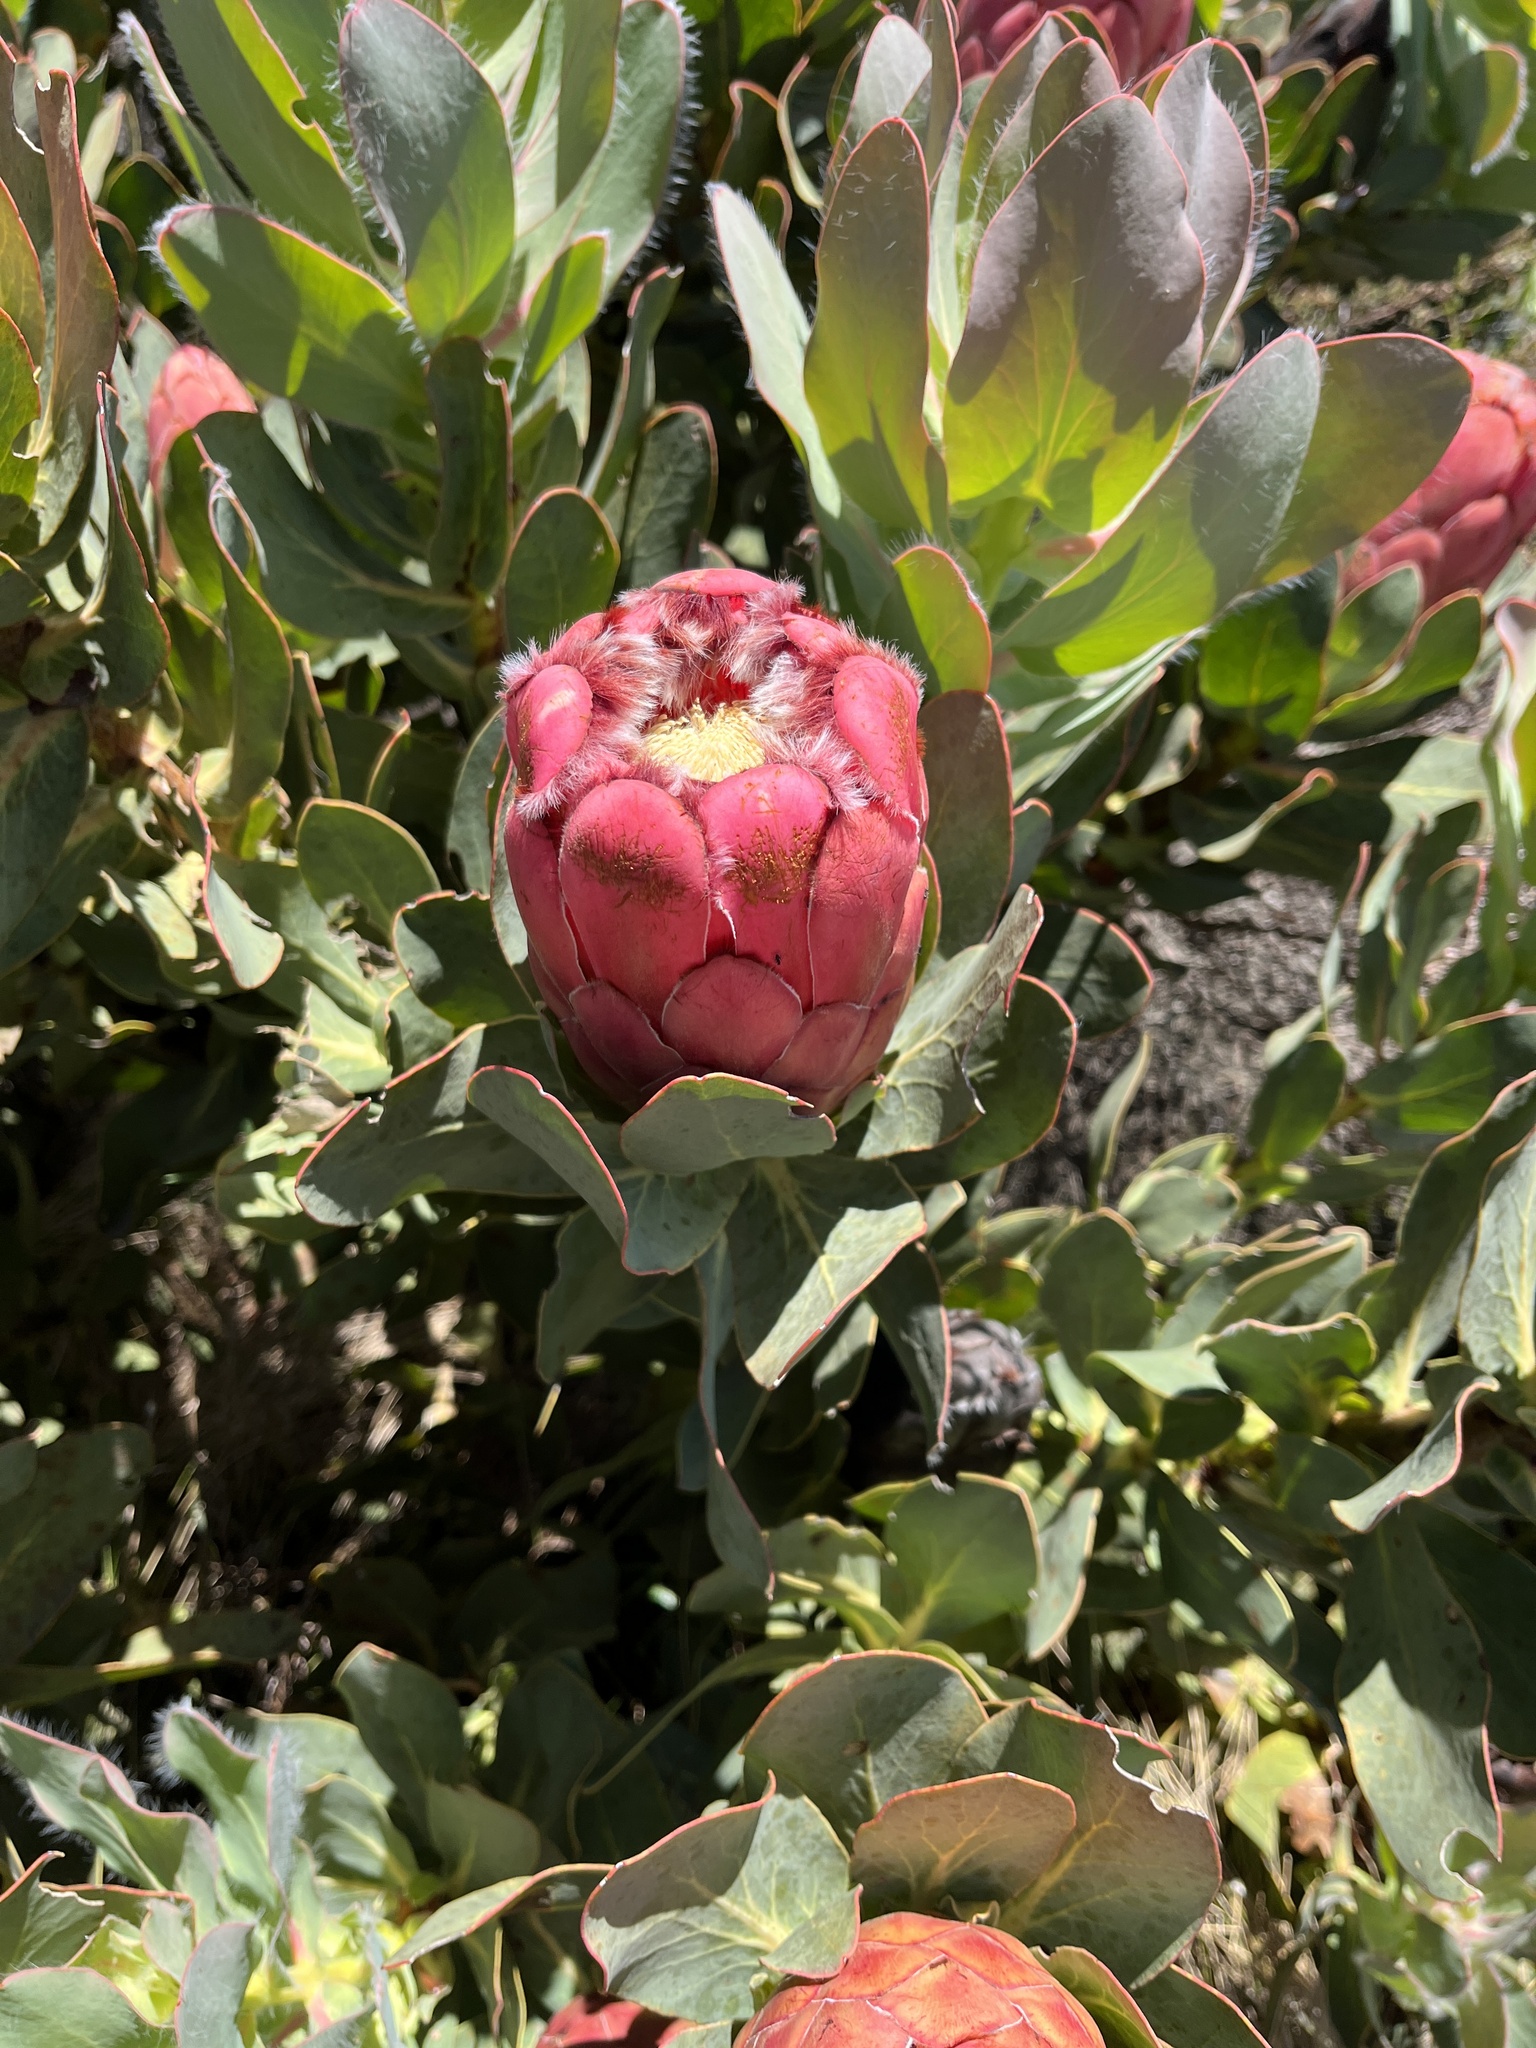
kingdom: Plantae
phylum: Tracheophyta
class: Magnoliopsida
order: Proteales
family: Proteaceae
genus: Protea
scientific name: Protea grandiceps
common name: Red sugarbush
